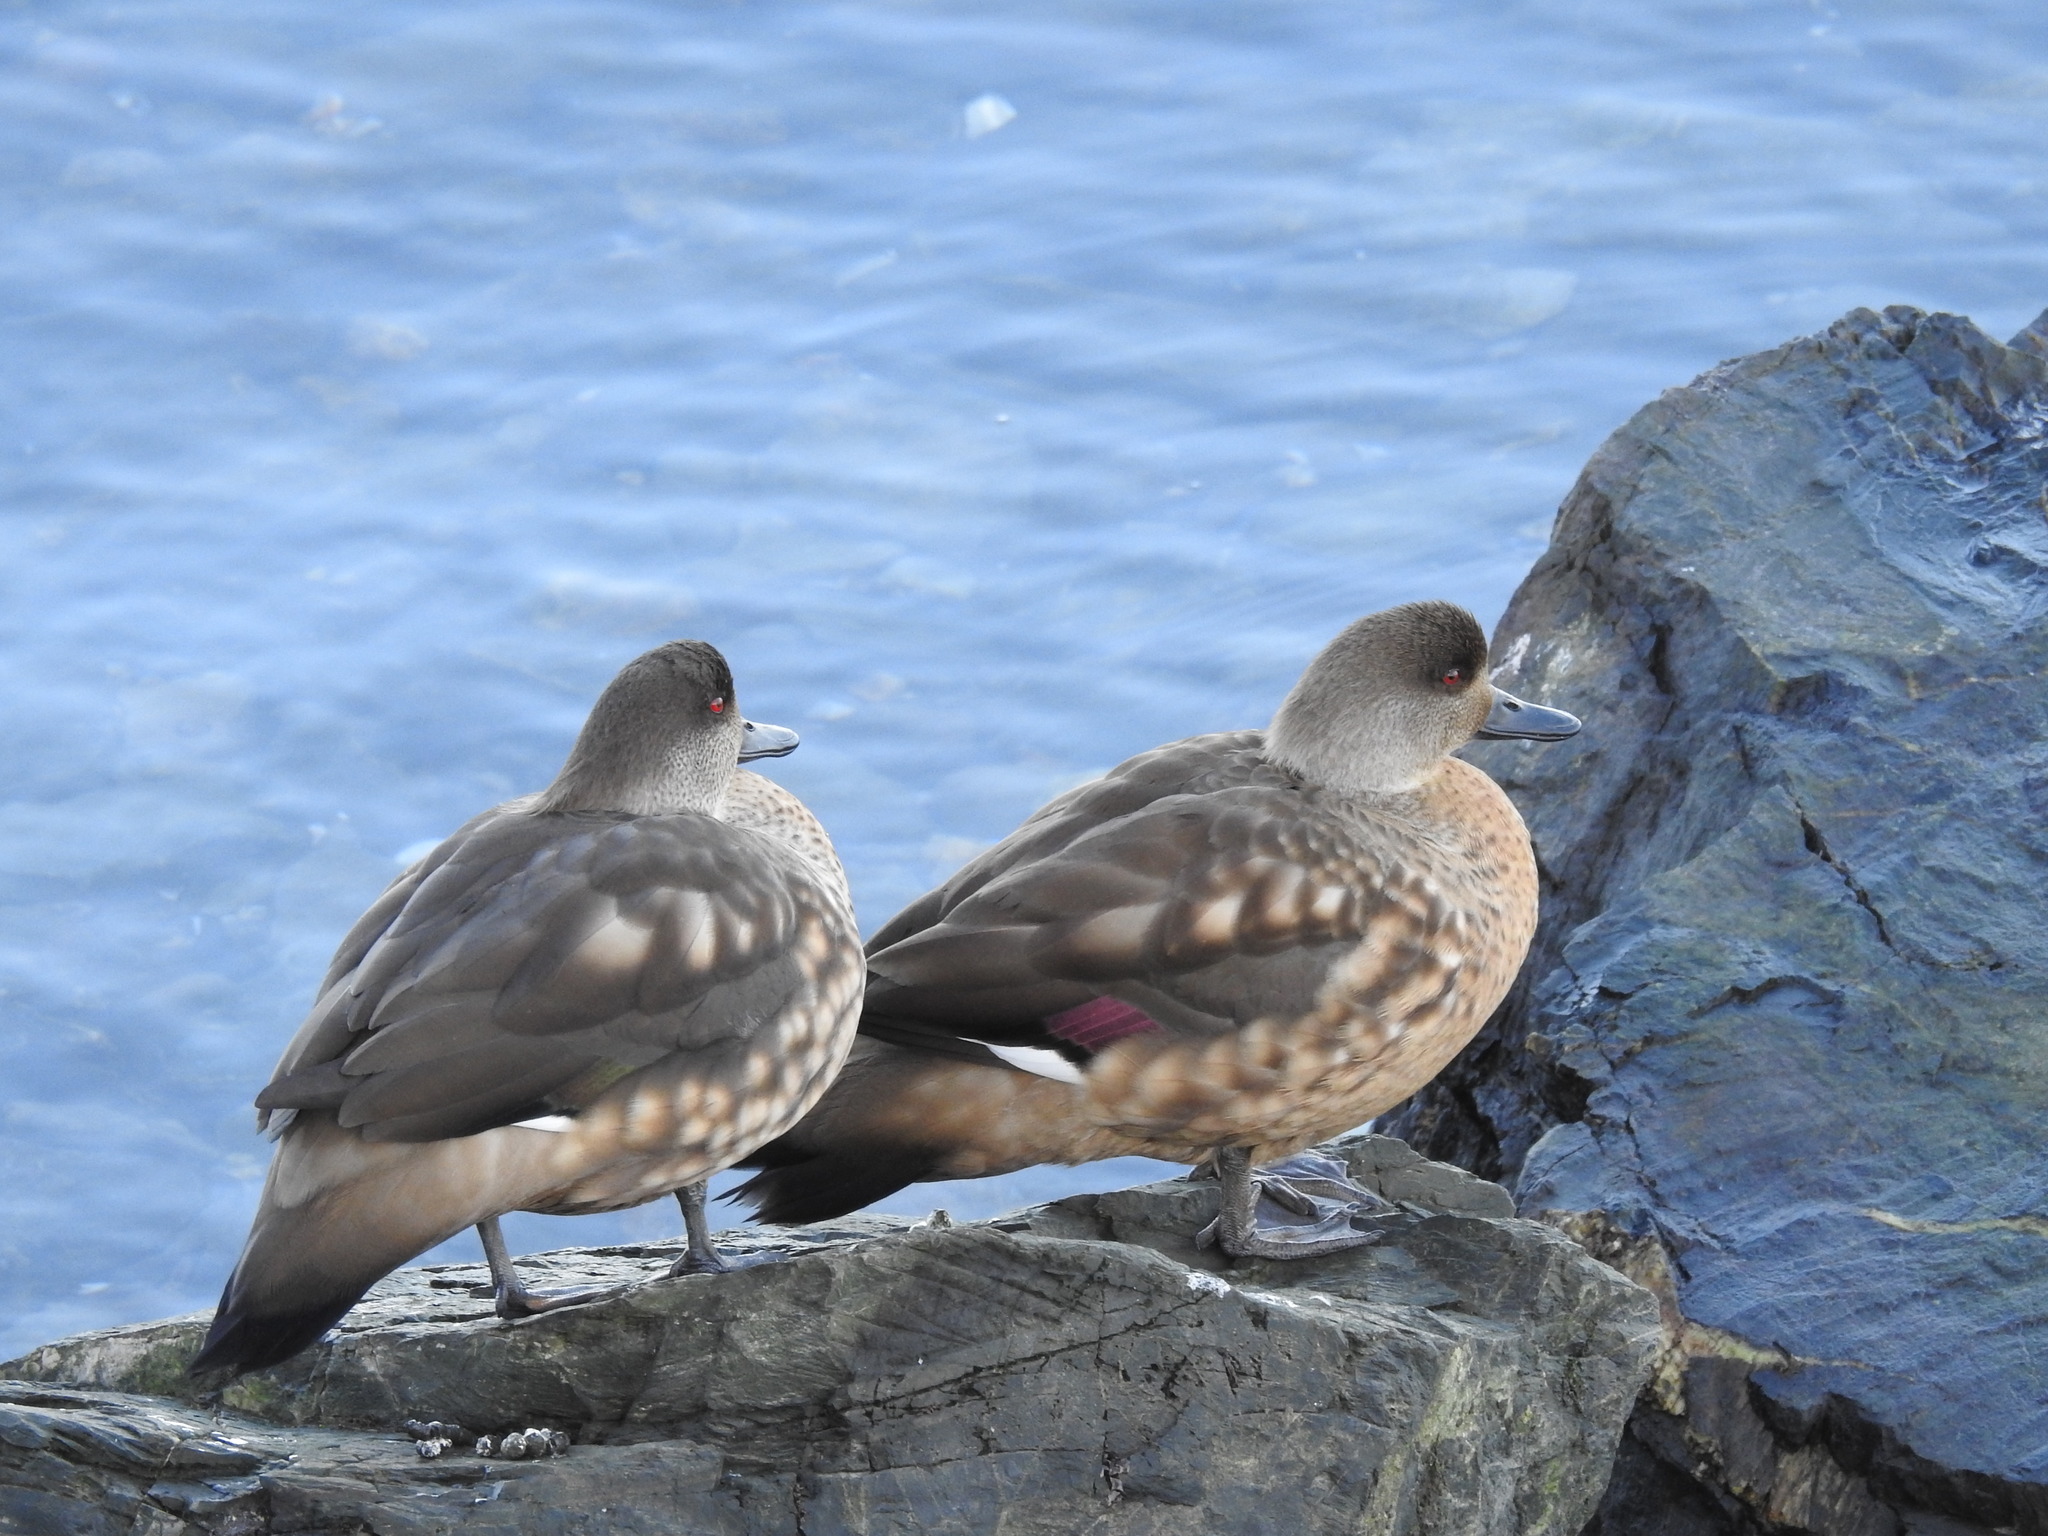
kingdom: Animalia
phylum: Chordata
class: Aves
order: Anseriformes
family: Anatidae
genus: Lophonetta
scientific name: Lophonetta specularioides
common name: Crested duck
